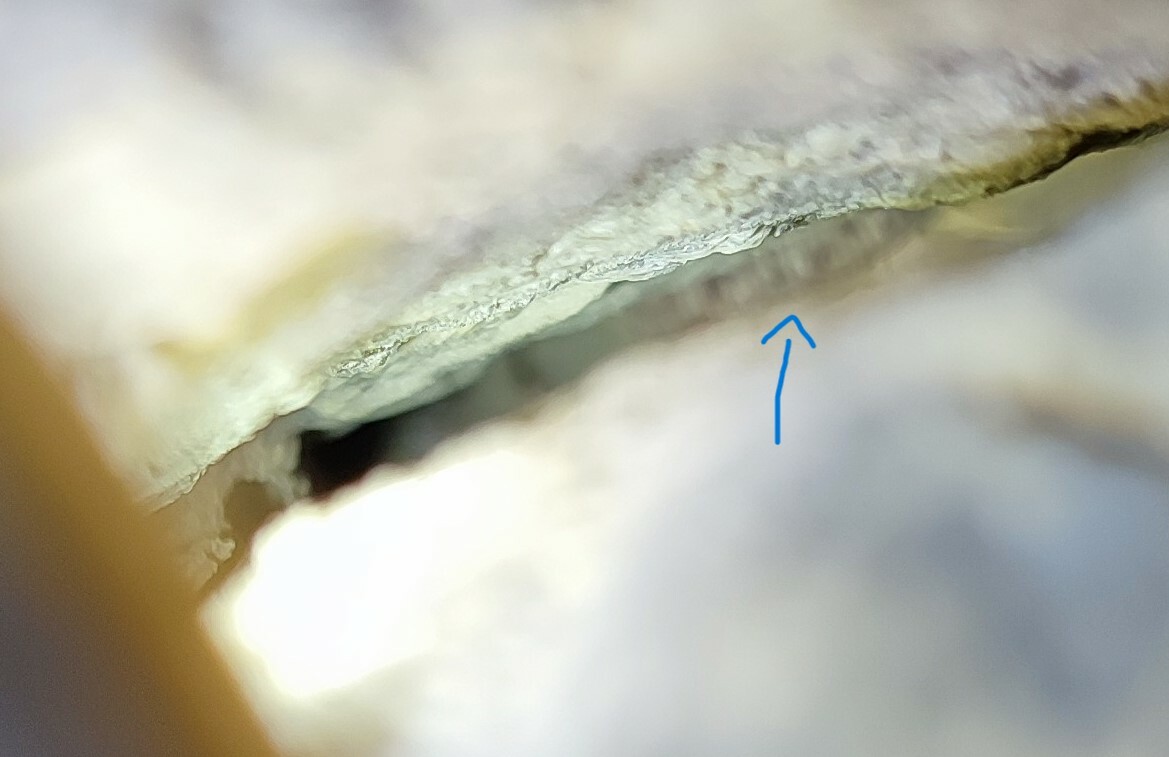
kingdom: Animalia
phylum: Chordata
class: Squamata
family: Sphaerodactylidae
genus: Euleptes
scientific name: Euleptes europaea
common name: English common name not available
